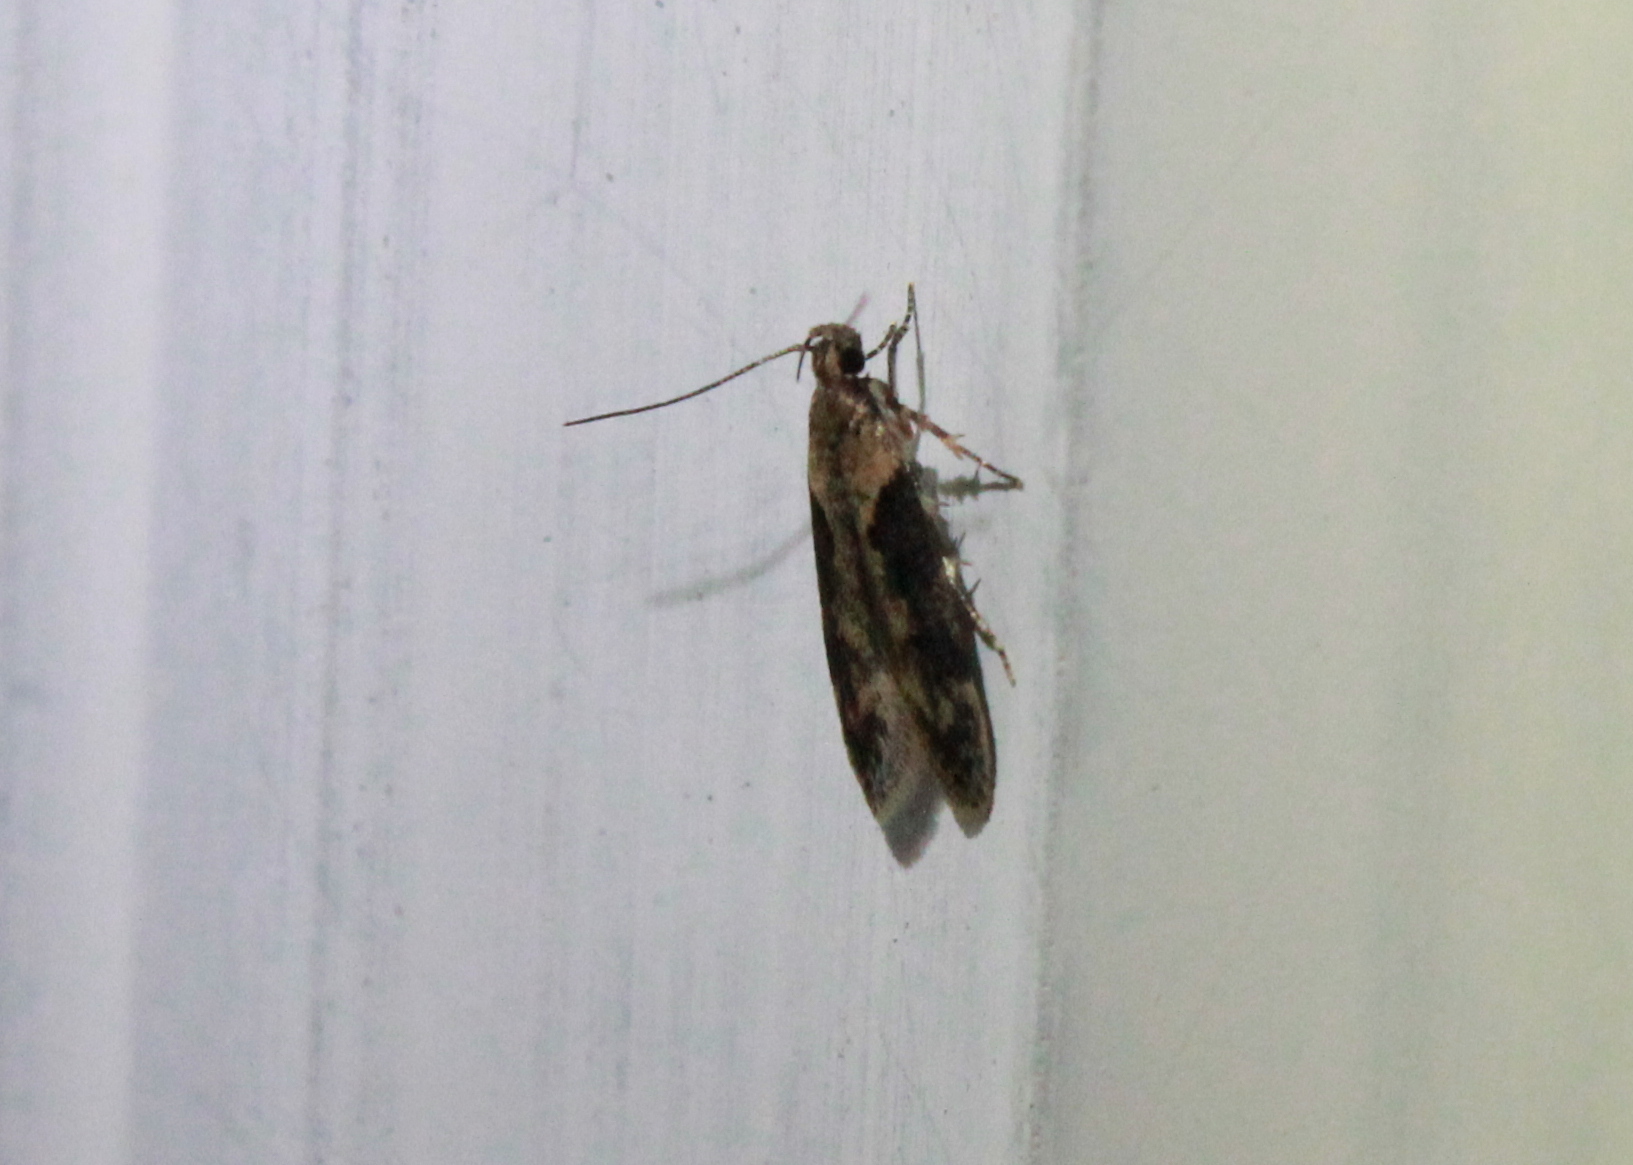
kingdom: Animalia
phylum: Arthropoda
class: Insecta
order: Lepidoptera
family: Gelechiidae
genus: Chionodes
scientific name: Chionodes mediofuscella
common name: Black-smudged chionodes moth
